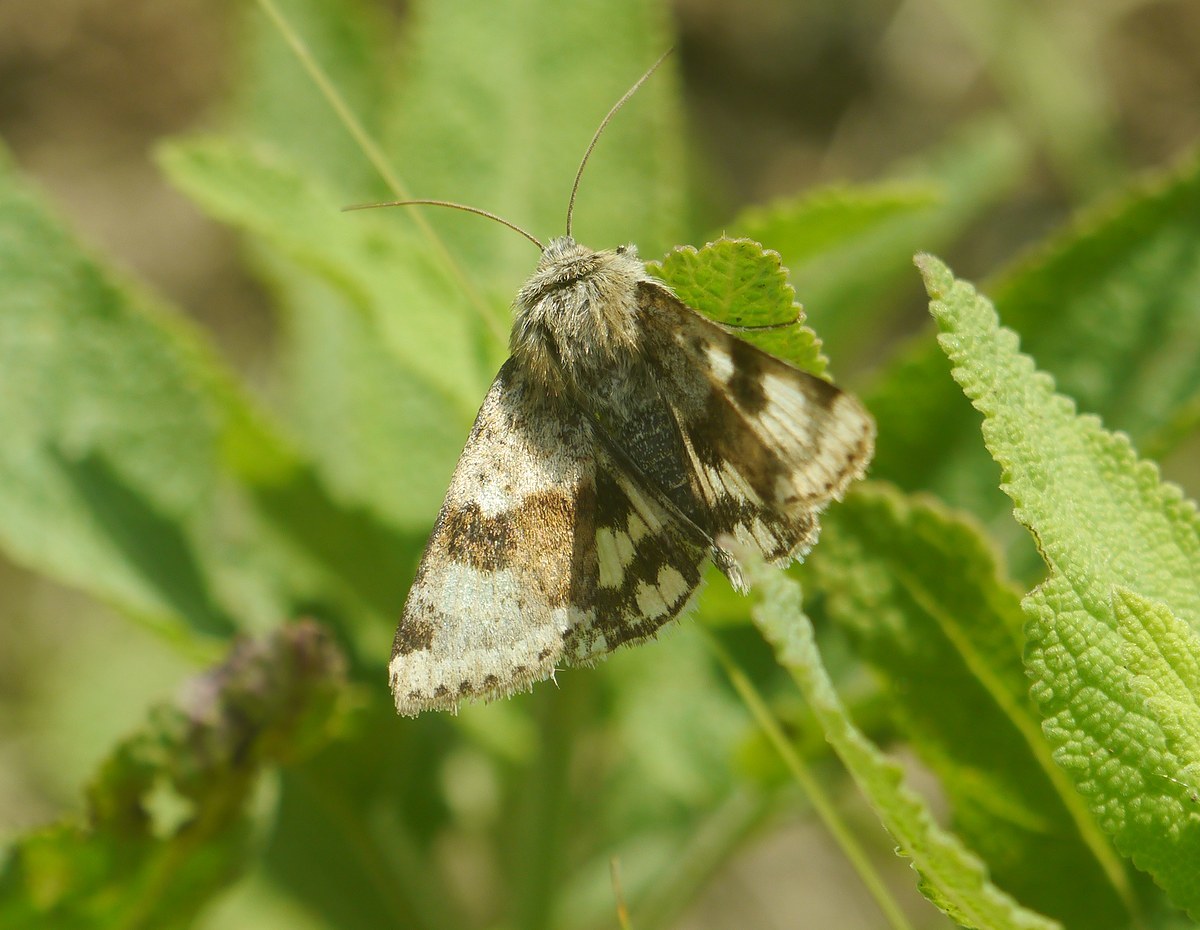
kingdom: Animalia
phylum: Arthropoda
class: Insecta
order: Lepidoptera
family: Noctuidae
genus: Heliothis
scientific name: Heliothis viriplaca
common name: Marbled clover
